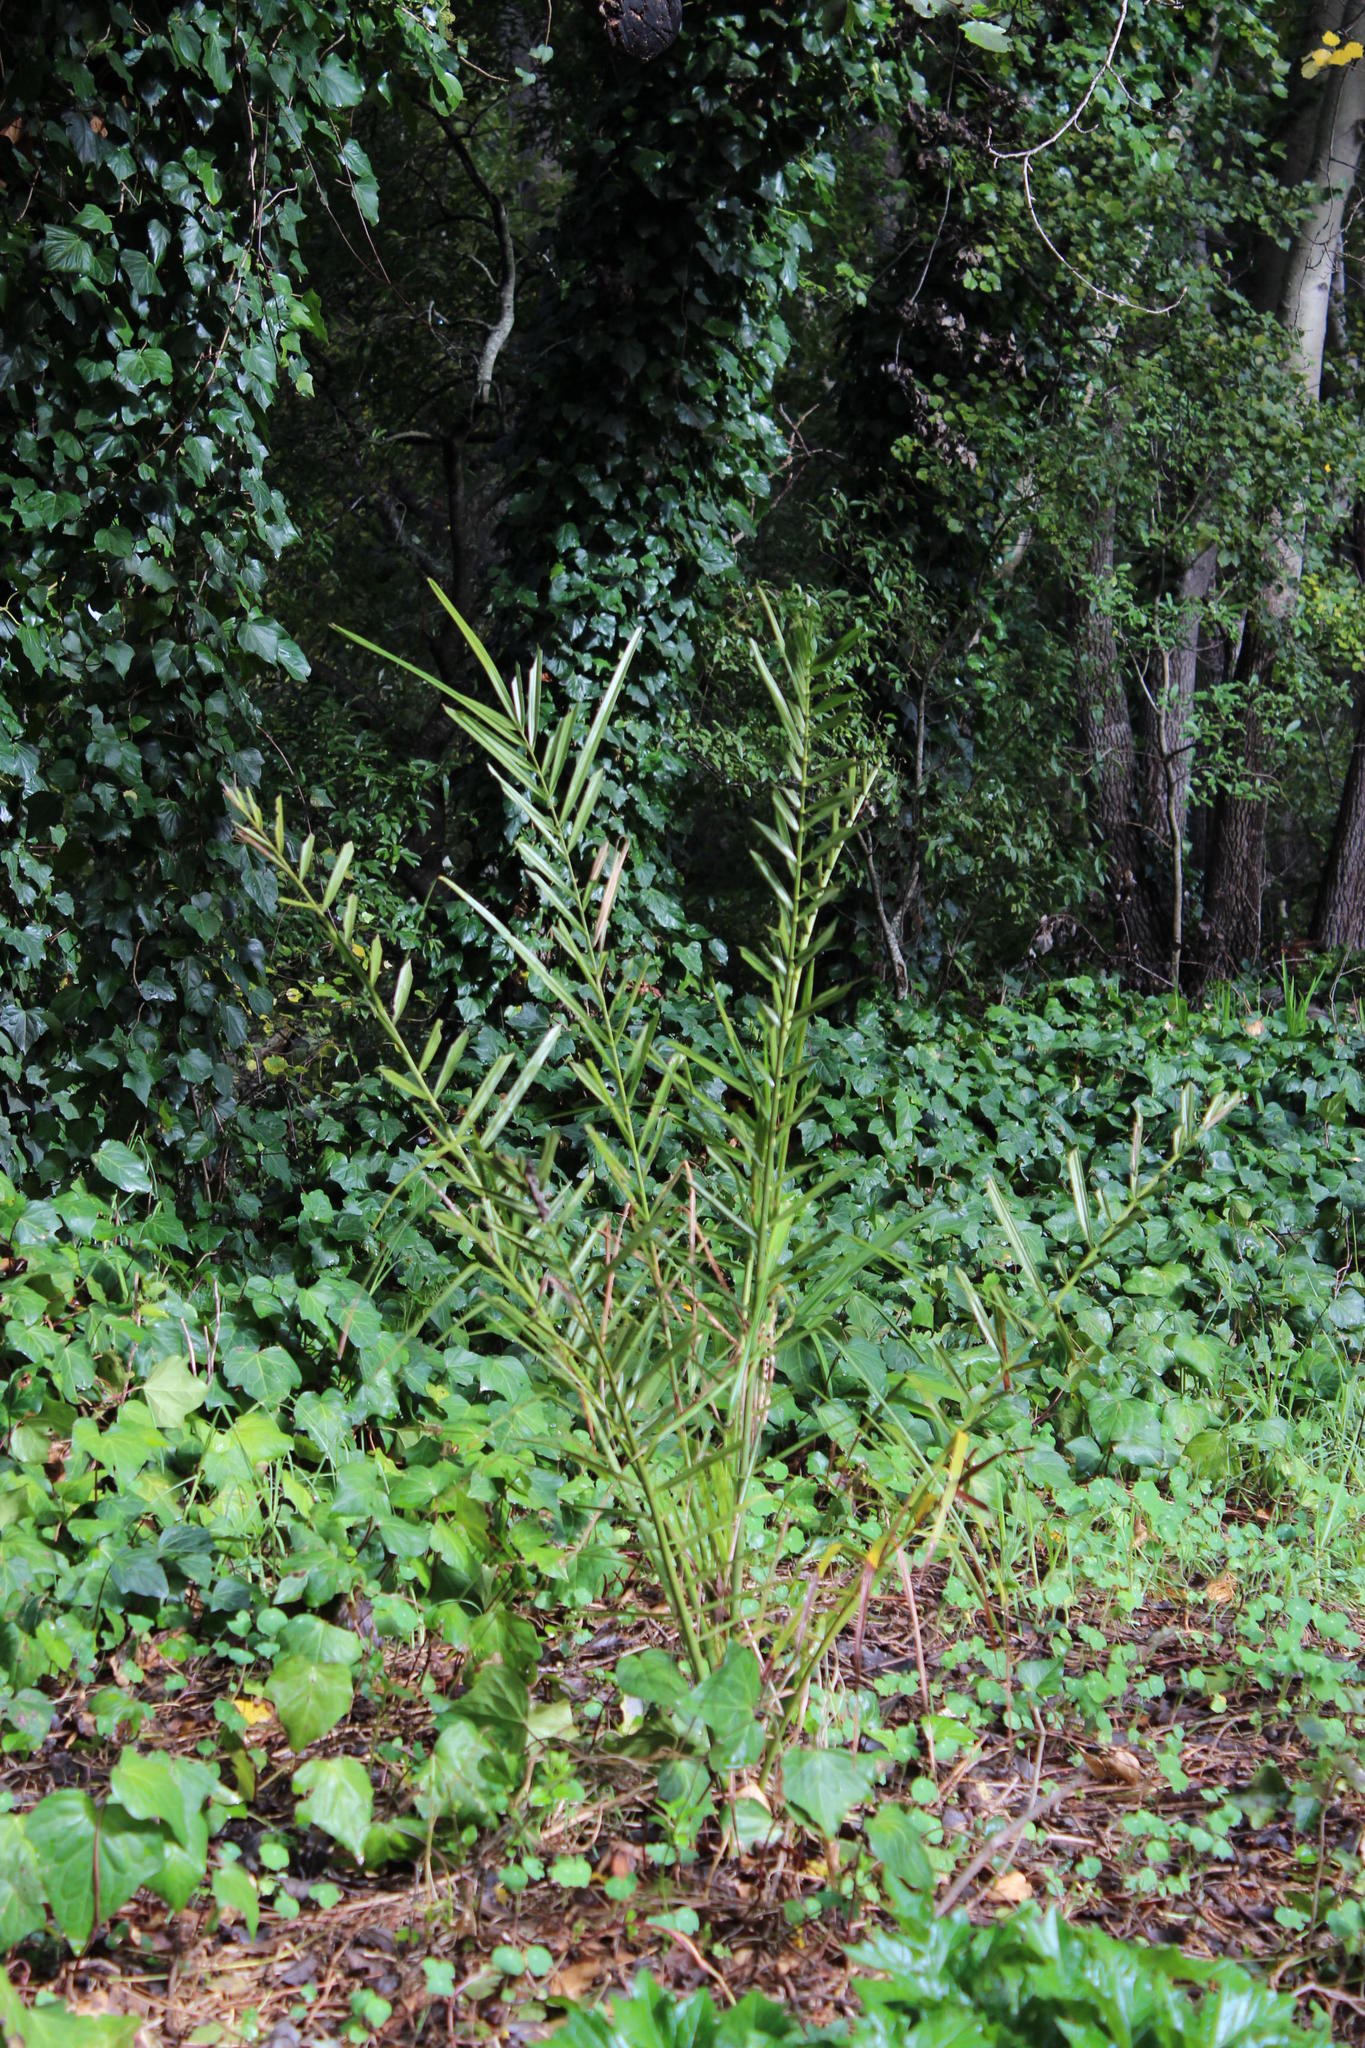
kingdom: Plantae
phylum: Tracheophyta
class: Liliopsida
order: Arecales
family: Arecaceae
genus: Phoenix
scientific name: Phoenix reclinata
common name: Senegal date palm
